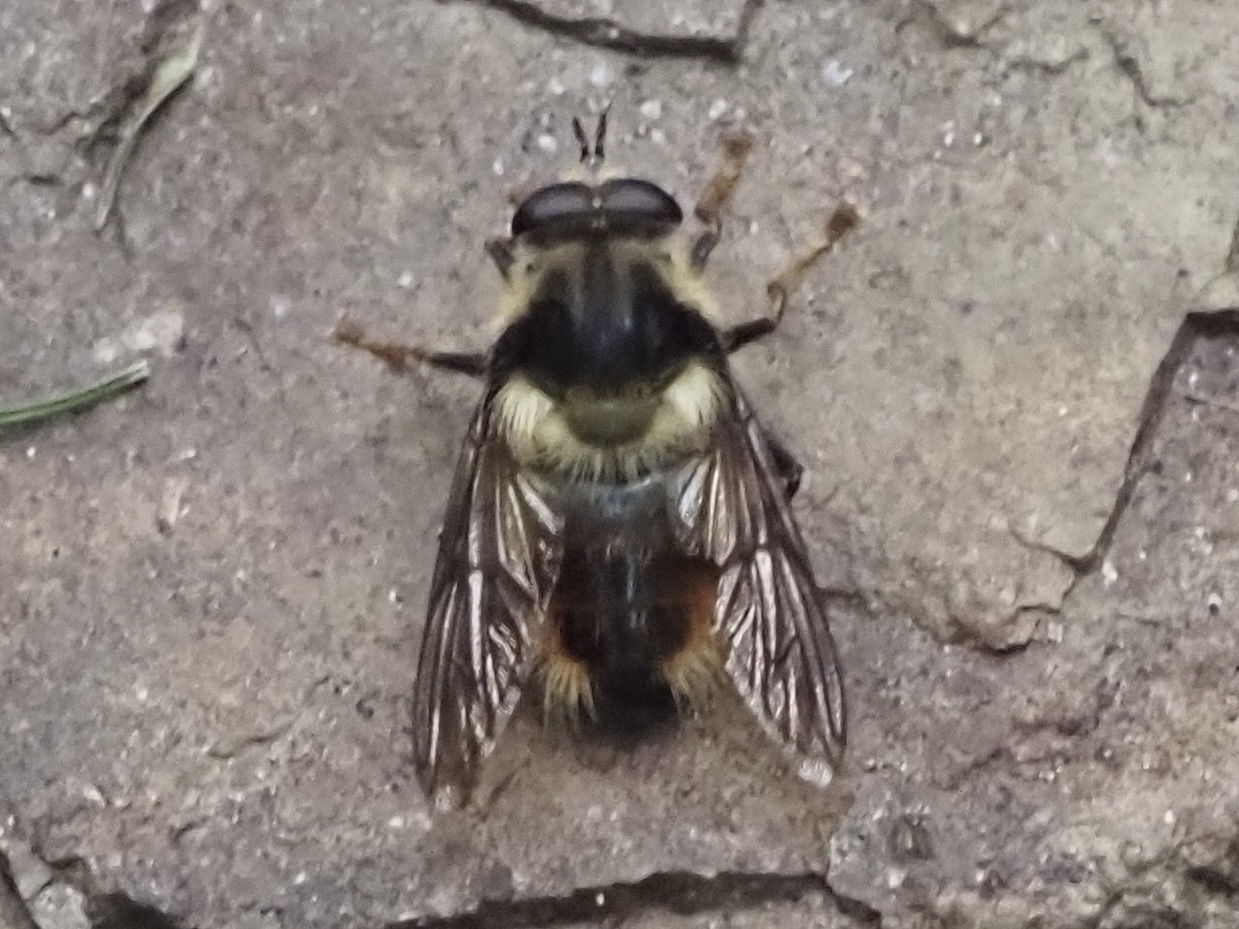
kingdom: Animalia
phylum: Arthropoda
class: Insecta
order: Diptera
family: Syrphidae
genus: Criorhina
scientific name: Criorhina bubulcus
